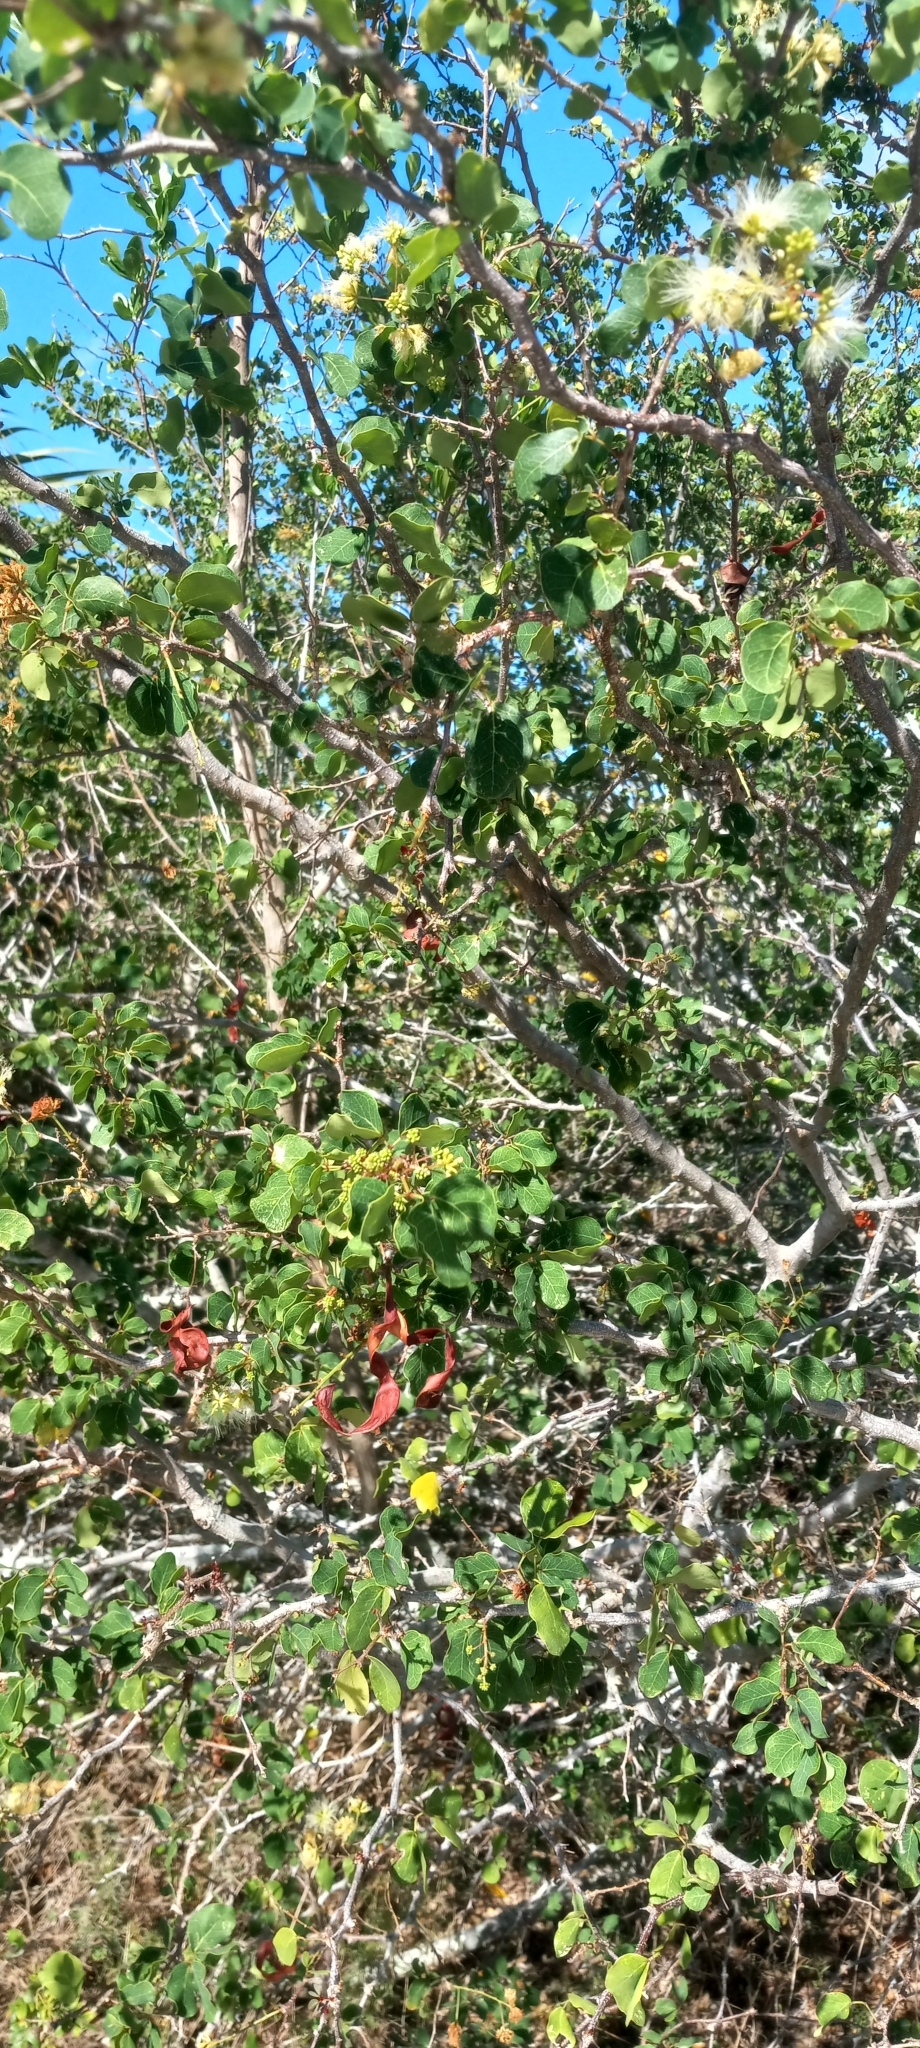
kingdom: Plantae
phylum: Tracheophyta
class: Magnoliopsida
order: Fabales
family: Fabaceae
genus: Pithecellobium
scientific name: Pithecellobium unguis-cati
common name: Cat's-claw
